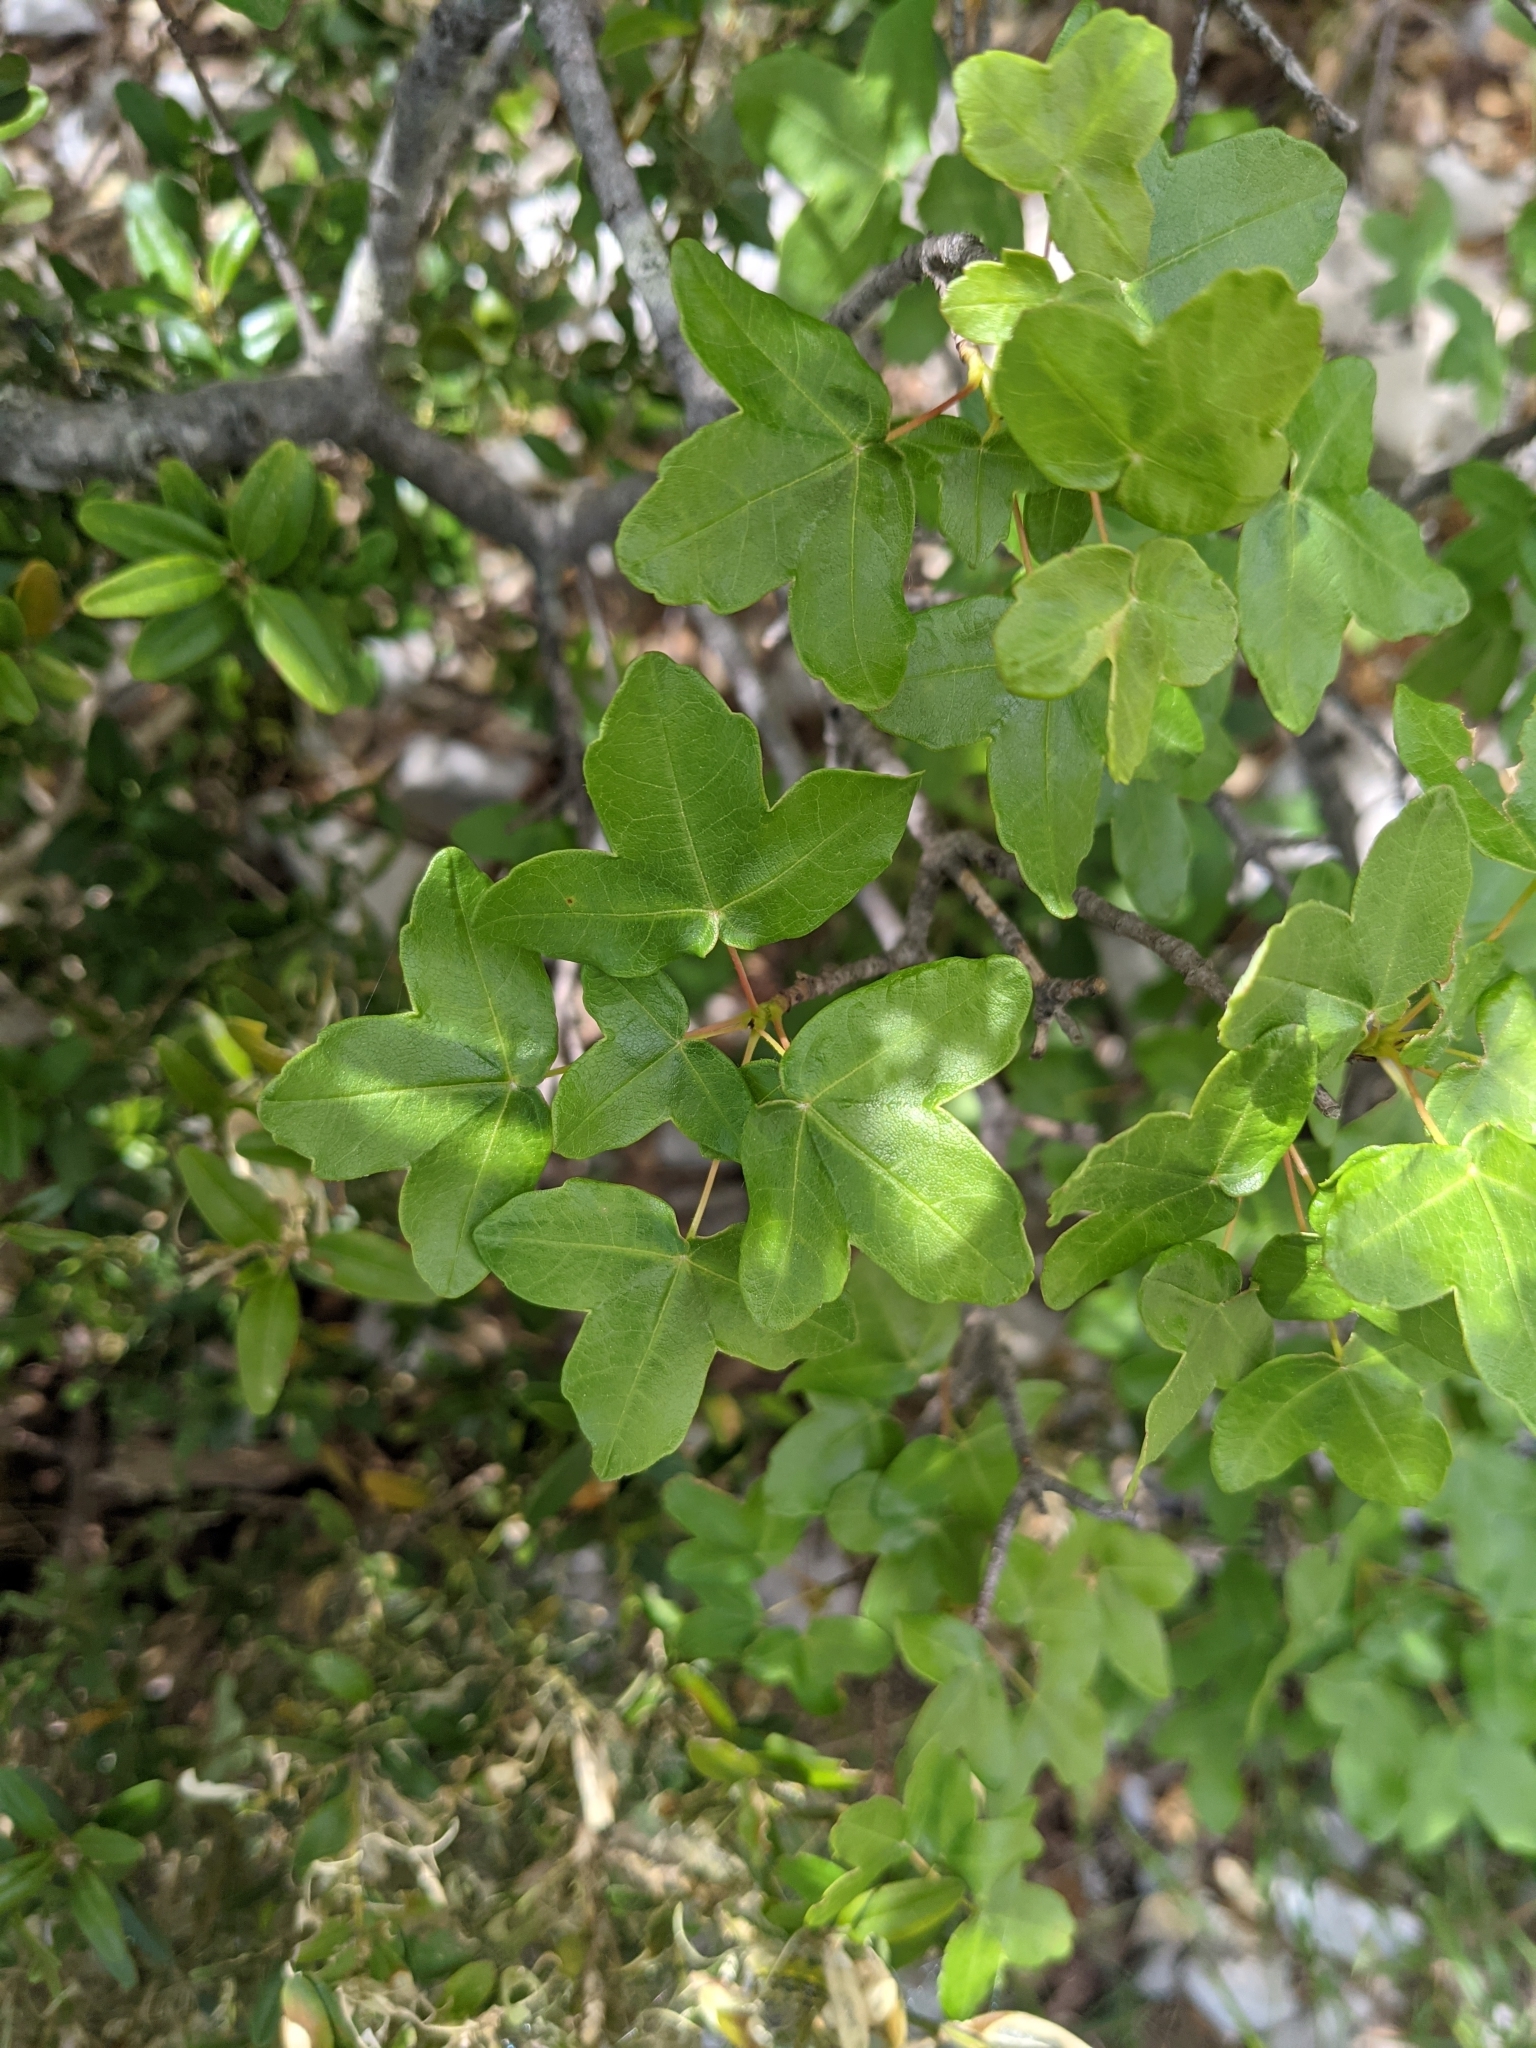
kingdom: Plantae
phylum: Tracheophyta
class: Magnoliopsida
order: Sapindales
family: Sapindaceae
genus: Acer
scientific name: Acer monspessulanum
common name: Montpellier maple
